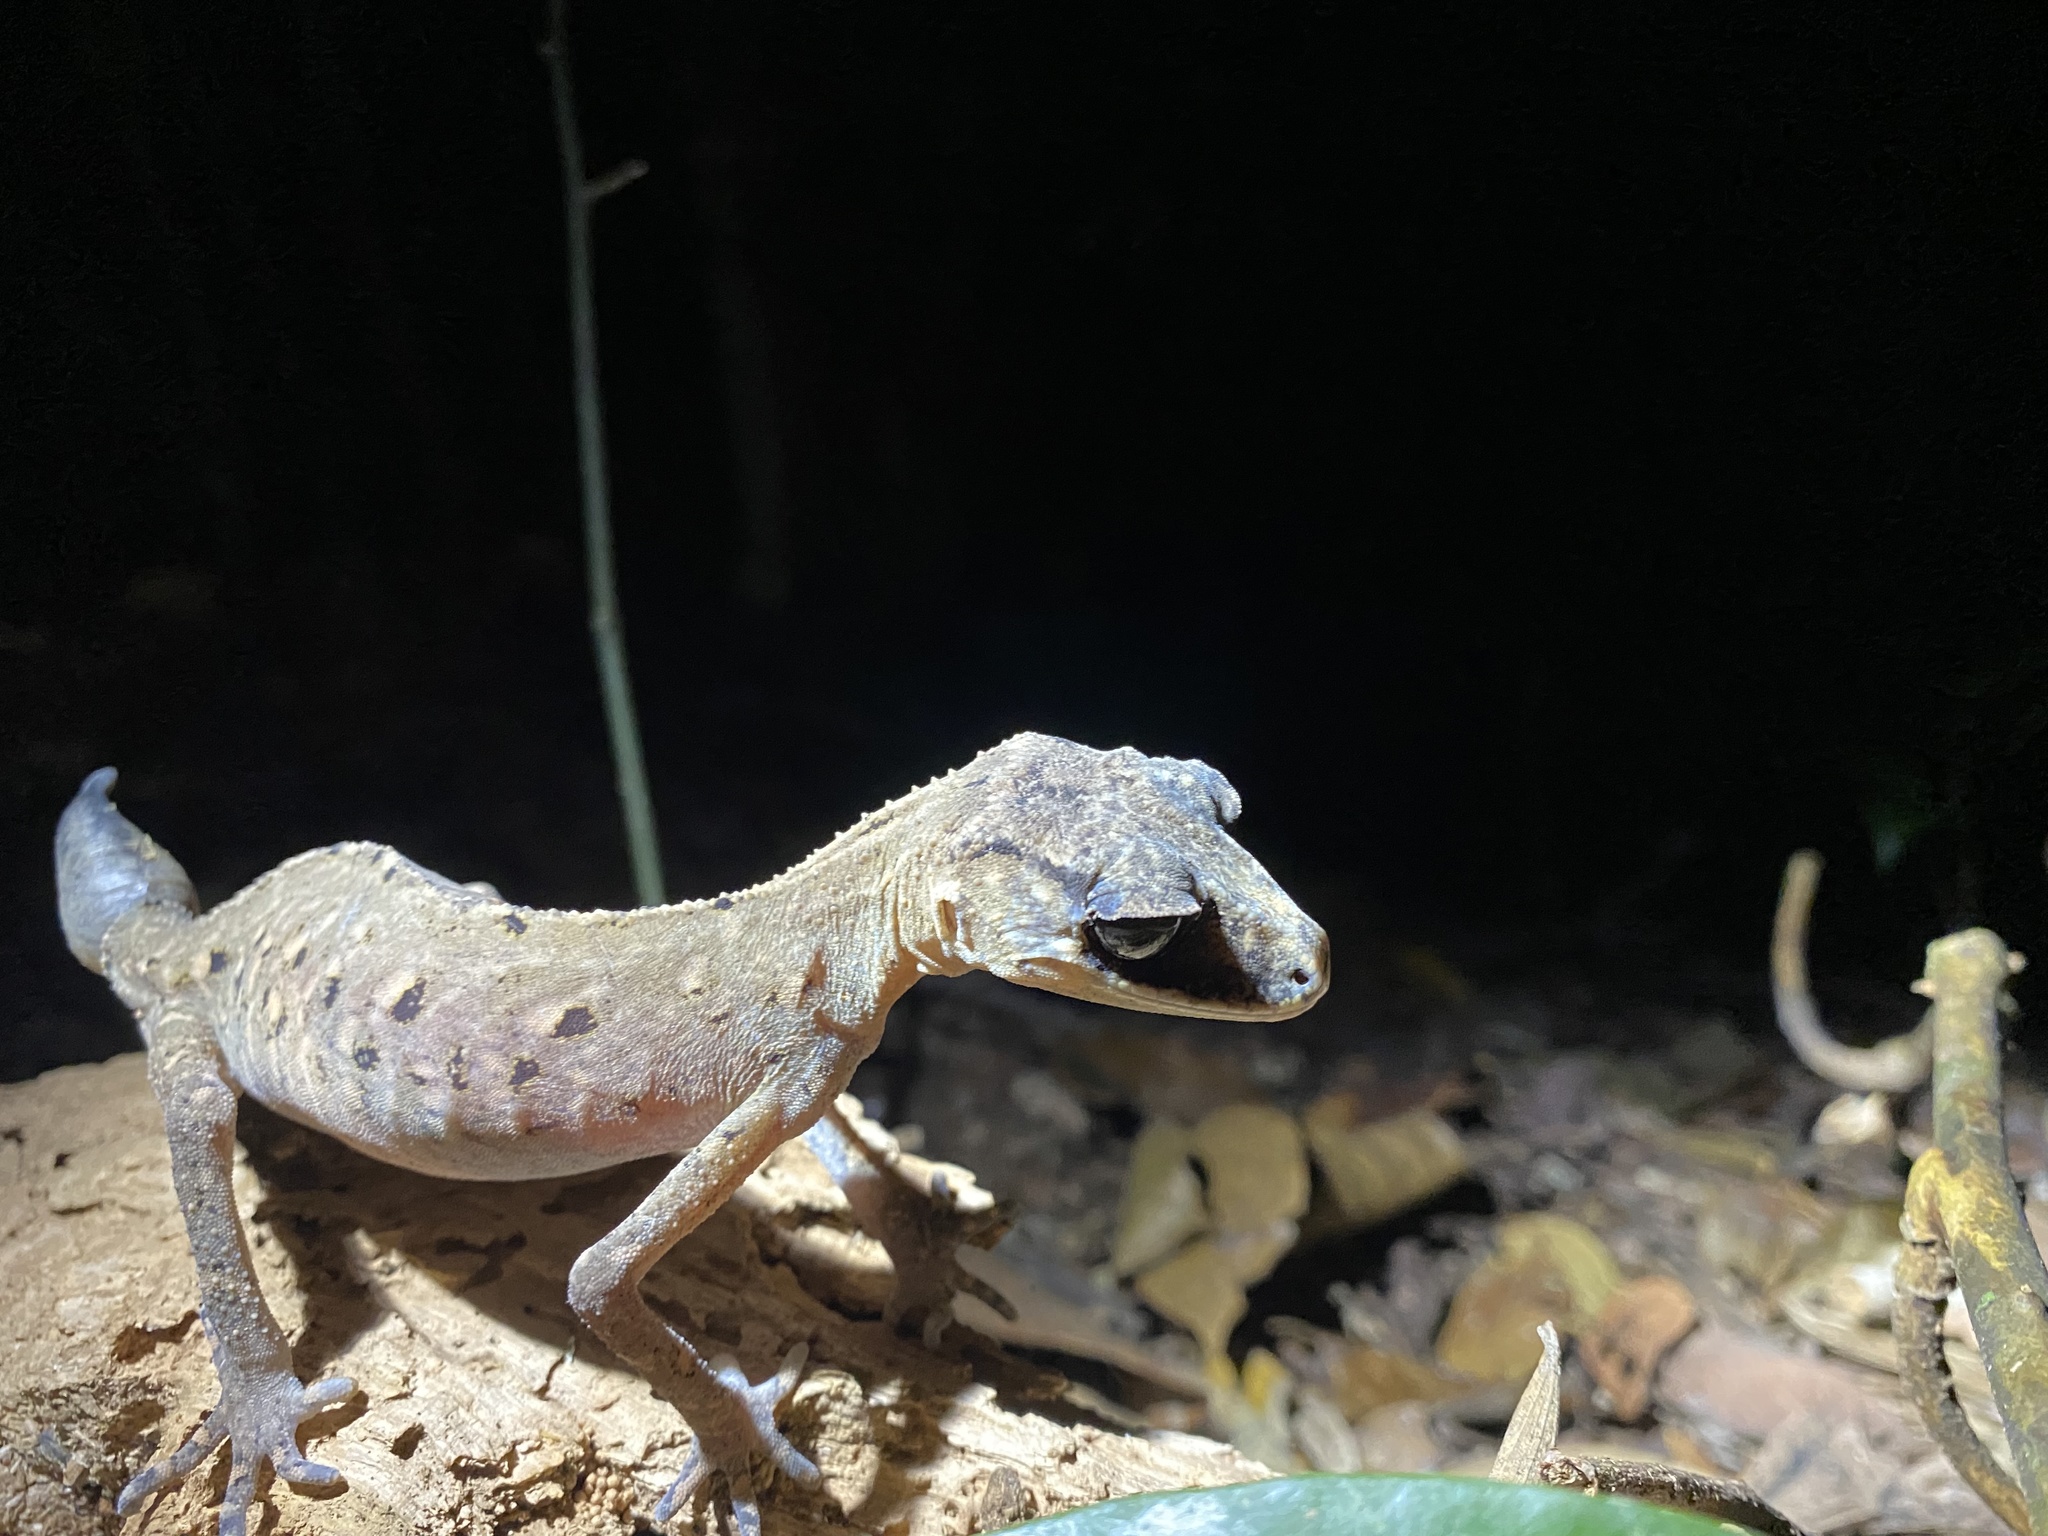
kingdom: Animalia
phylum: Chordata
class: Squamata
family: Carphodactylidae
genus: Carphodactylus
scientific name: Carphodactylus laevis
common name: Chameleon gecko
